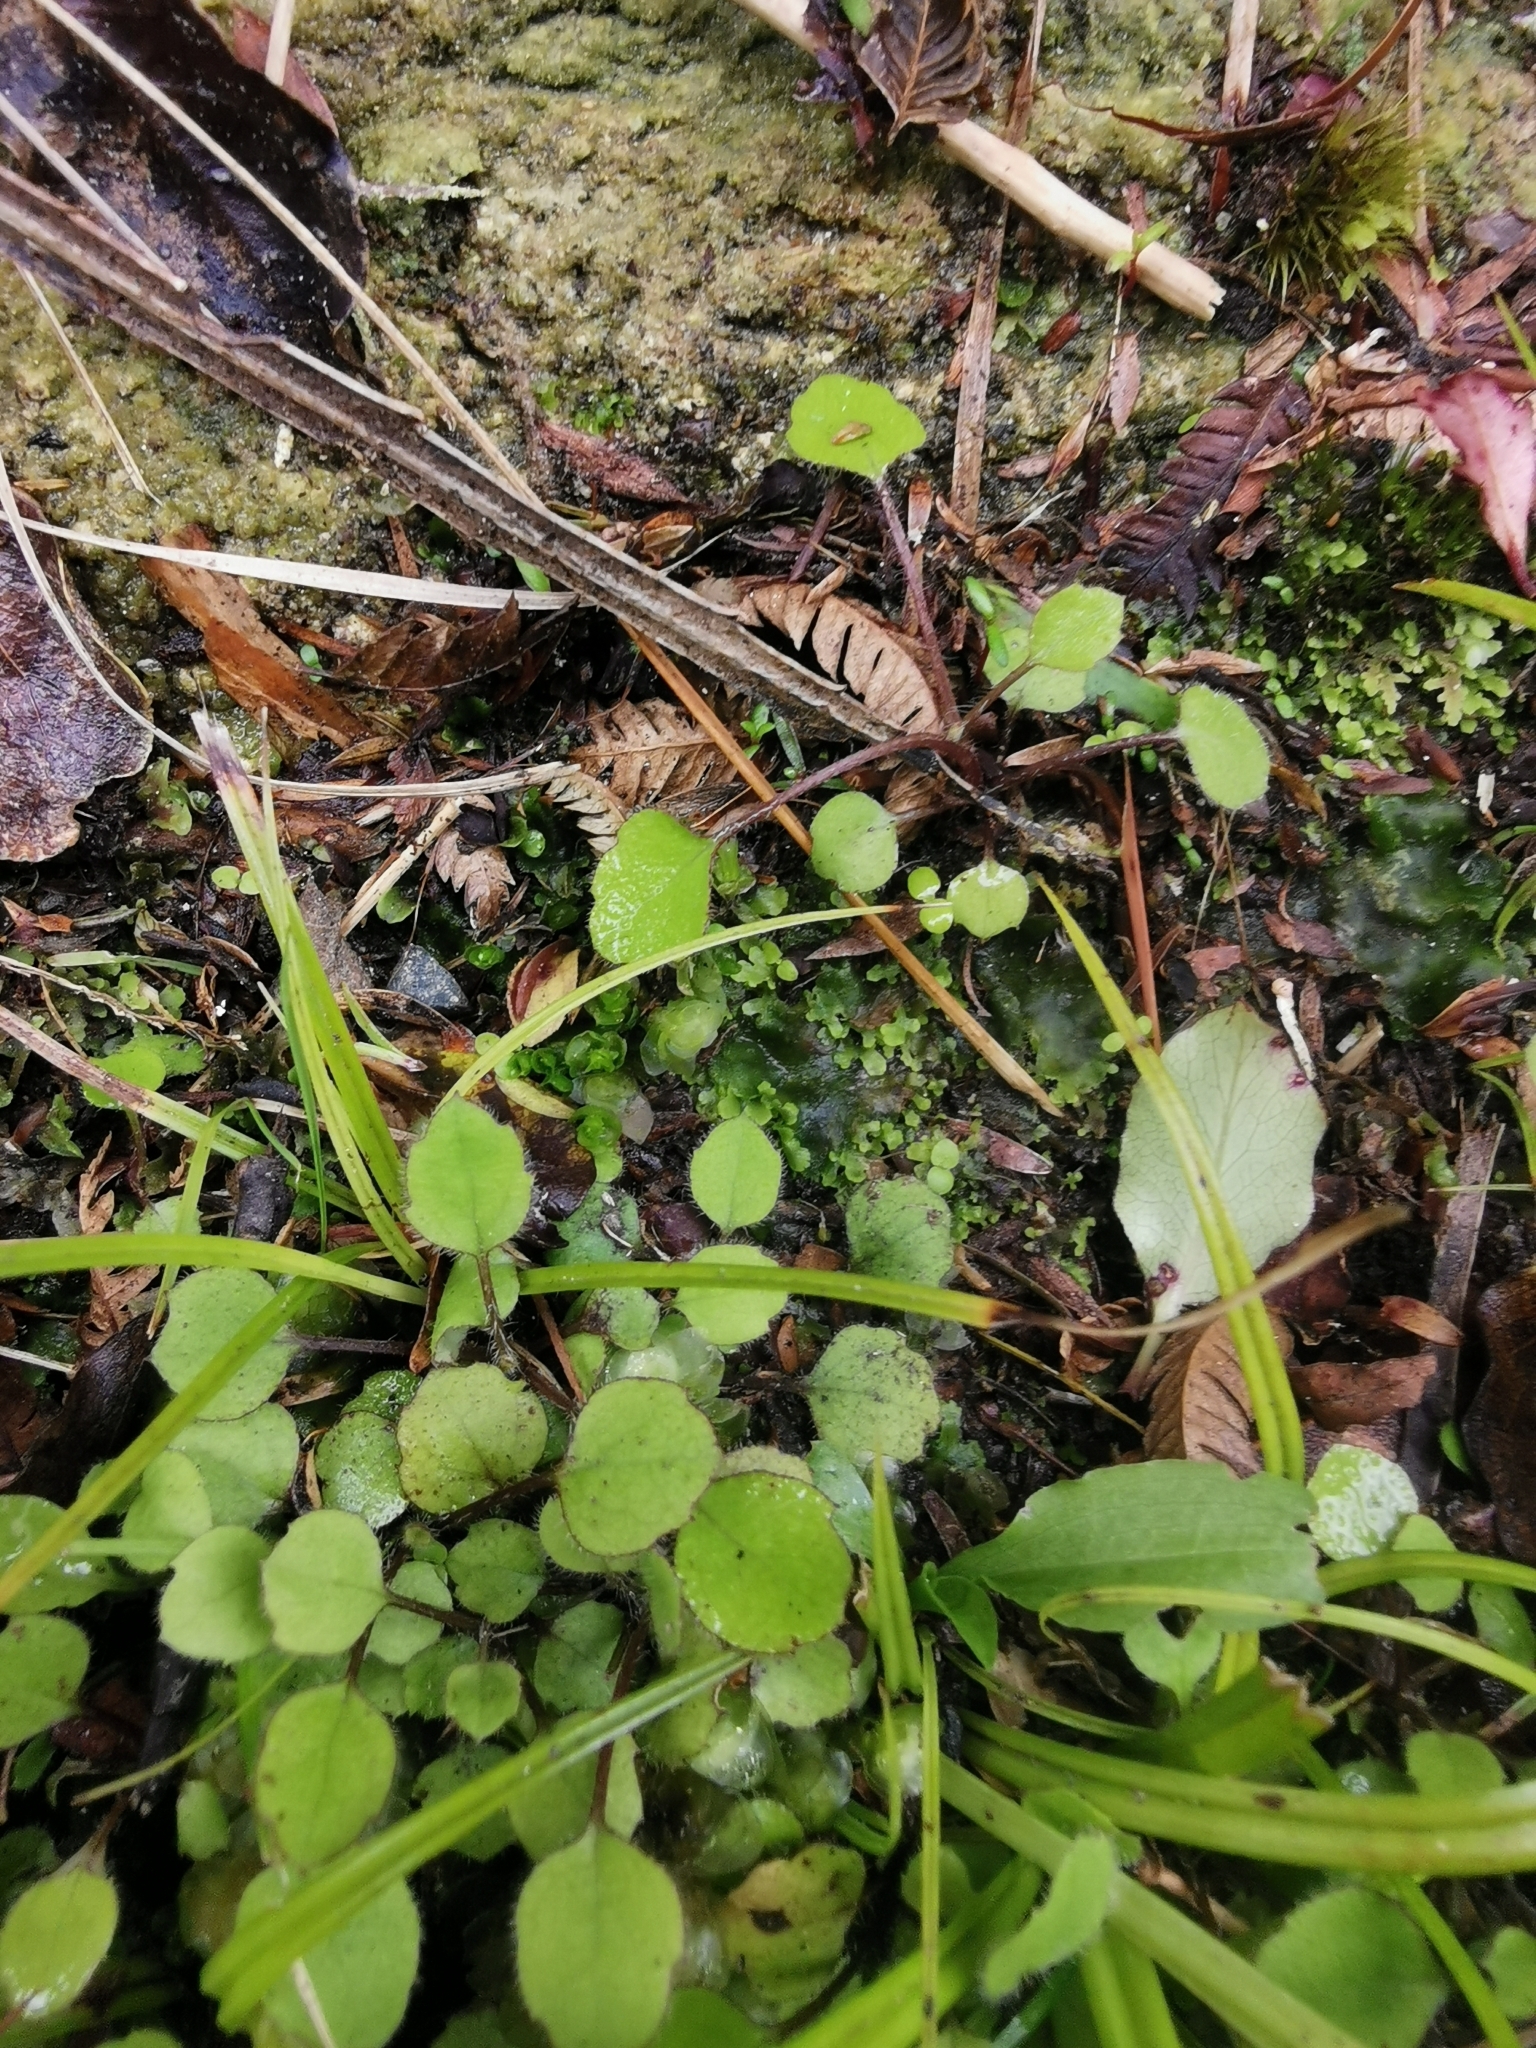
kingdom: Plantae
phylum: Tracheophyta
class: Magnoliopsida
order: Asterales
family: Asteraceae
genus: Lagenophora
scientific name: Lagenophora strangulata
